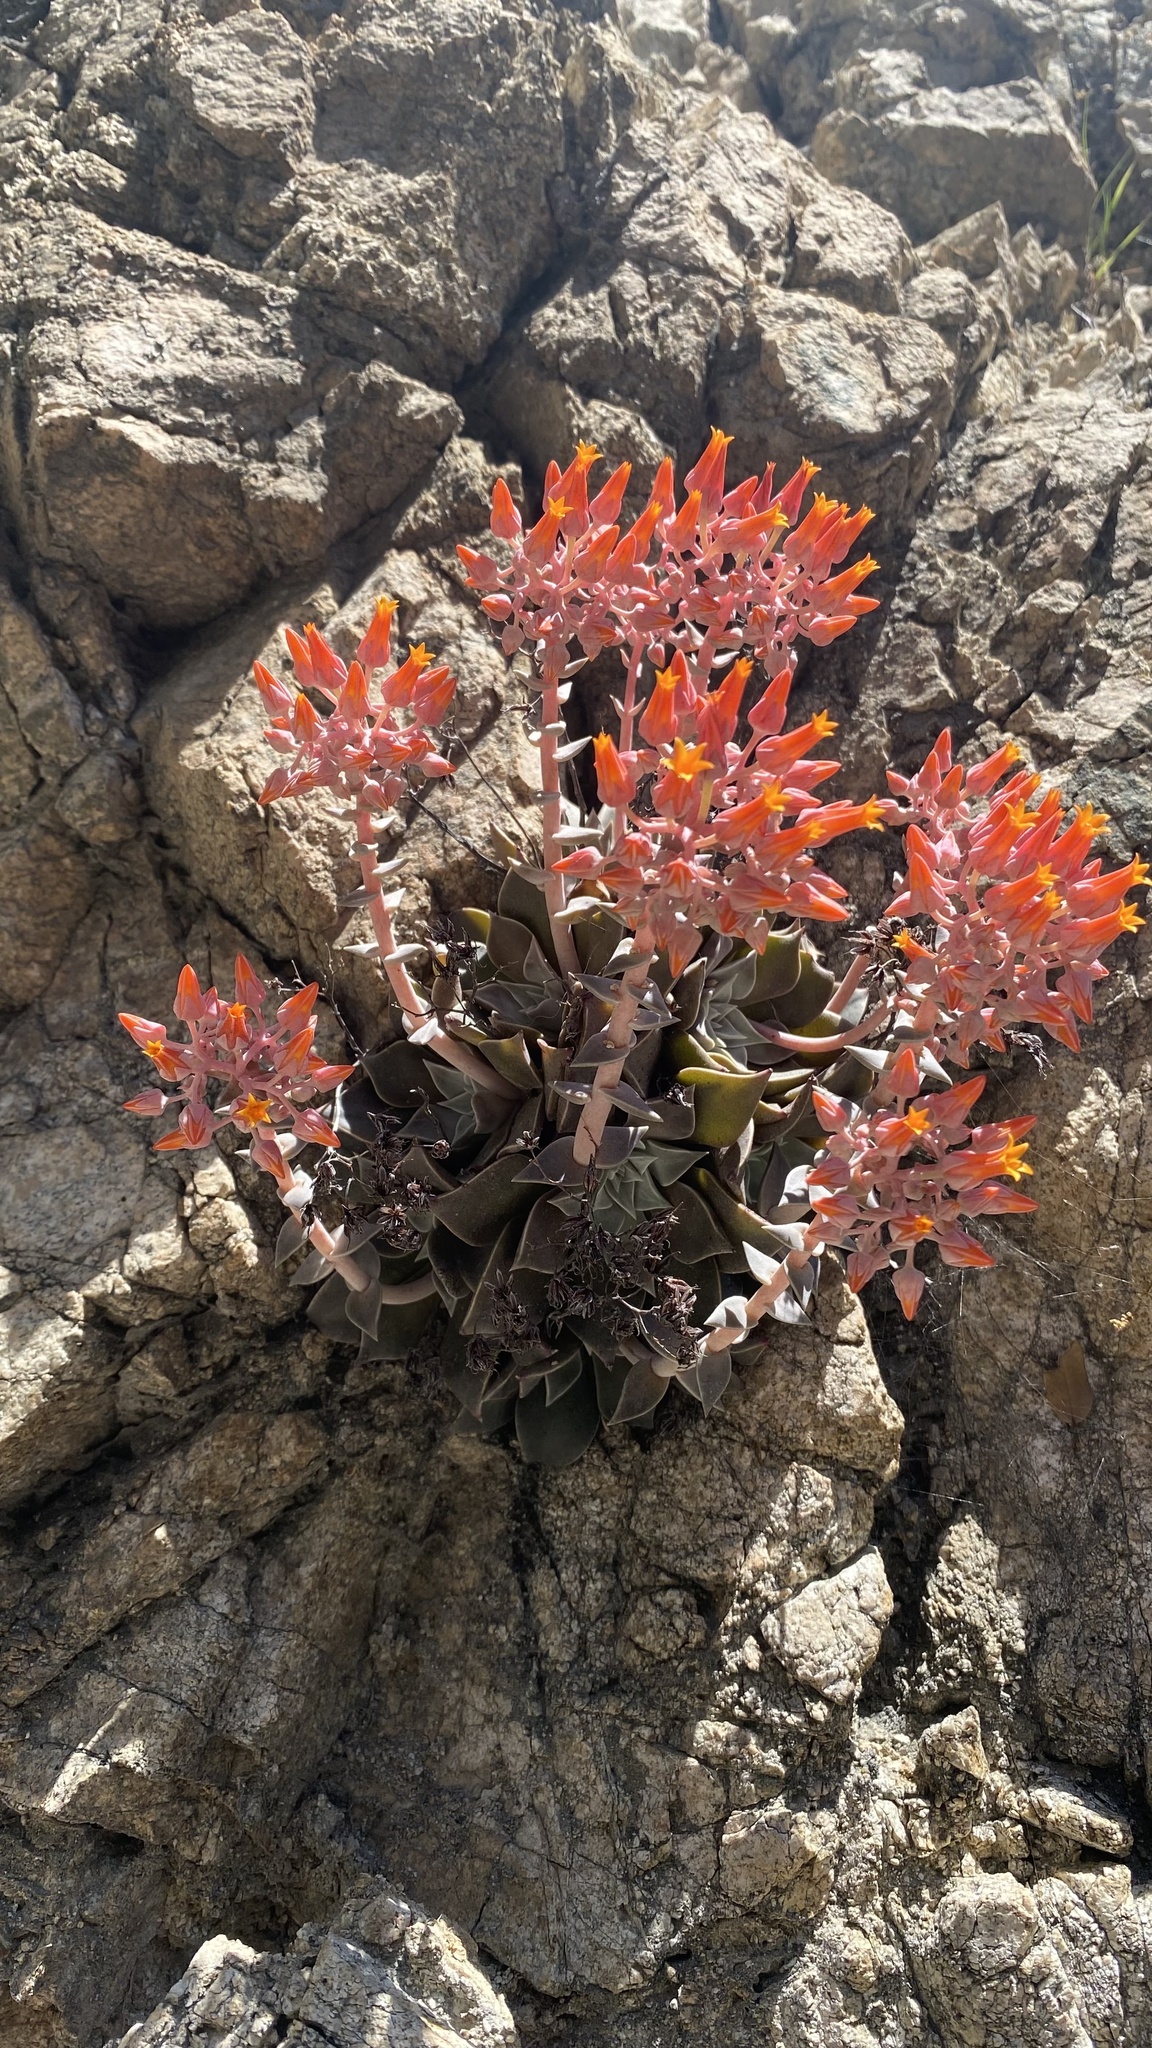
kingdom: Plantae
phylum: Tracheophyta
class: Magnoliopsida
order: Saxifragales
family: Crassulaceae
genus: Dudleya
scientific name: Dudleya cymosa
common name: Canyon dudleya
